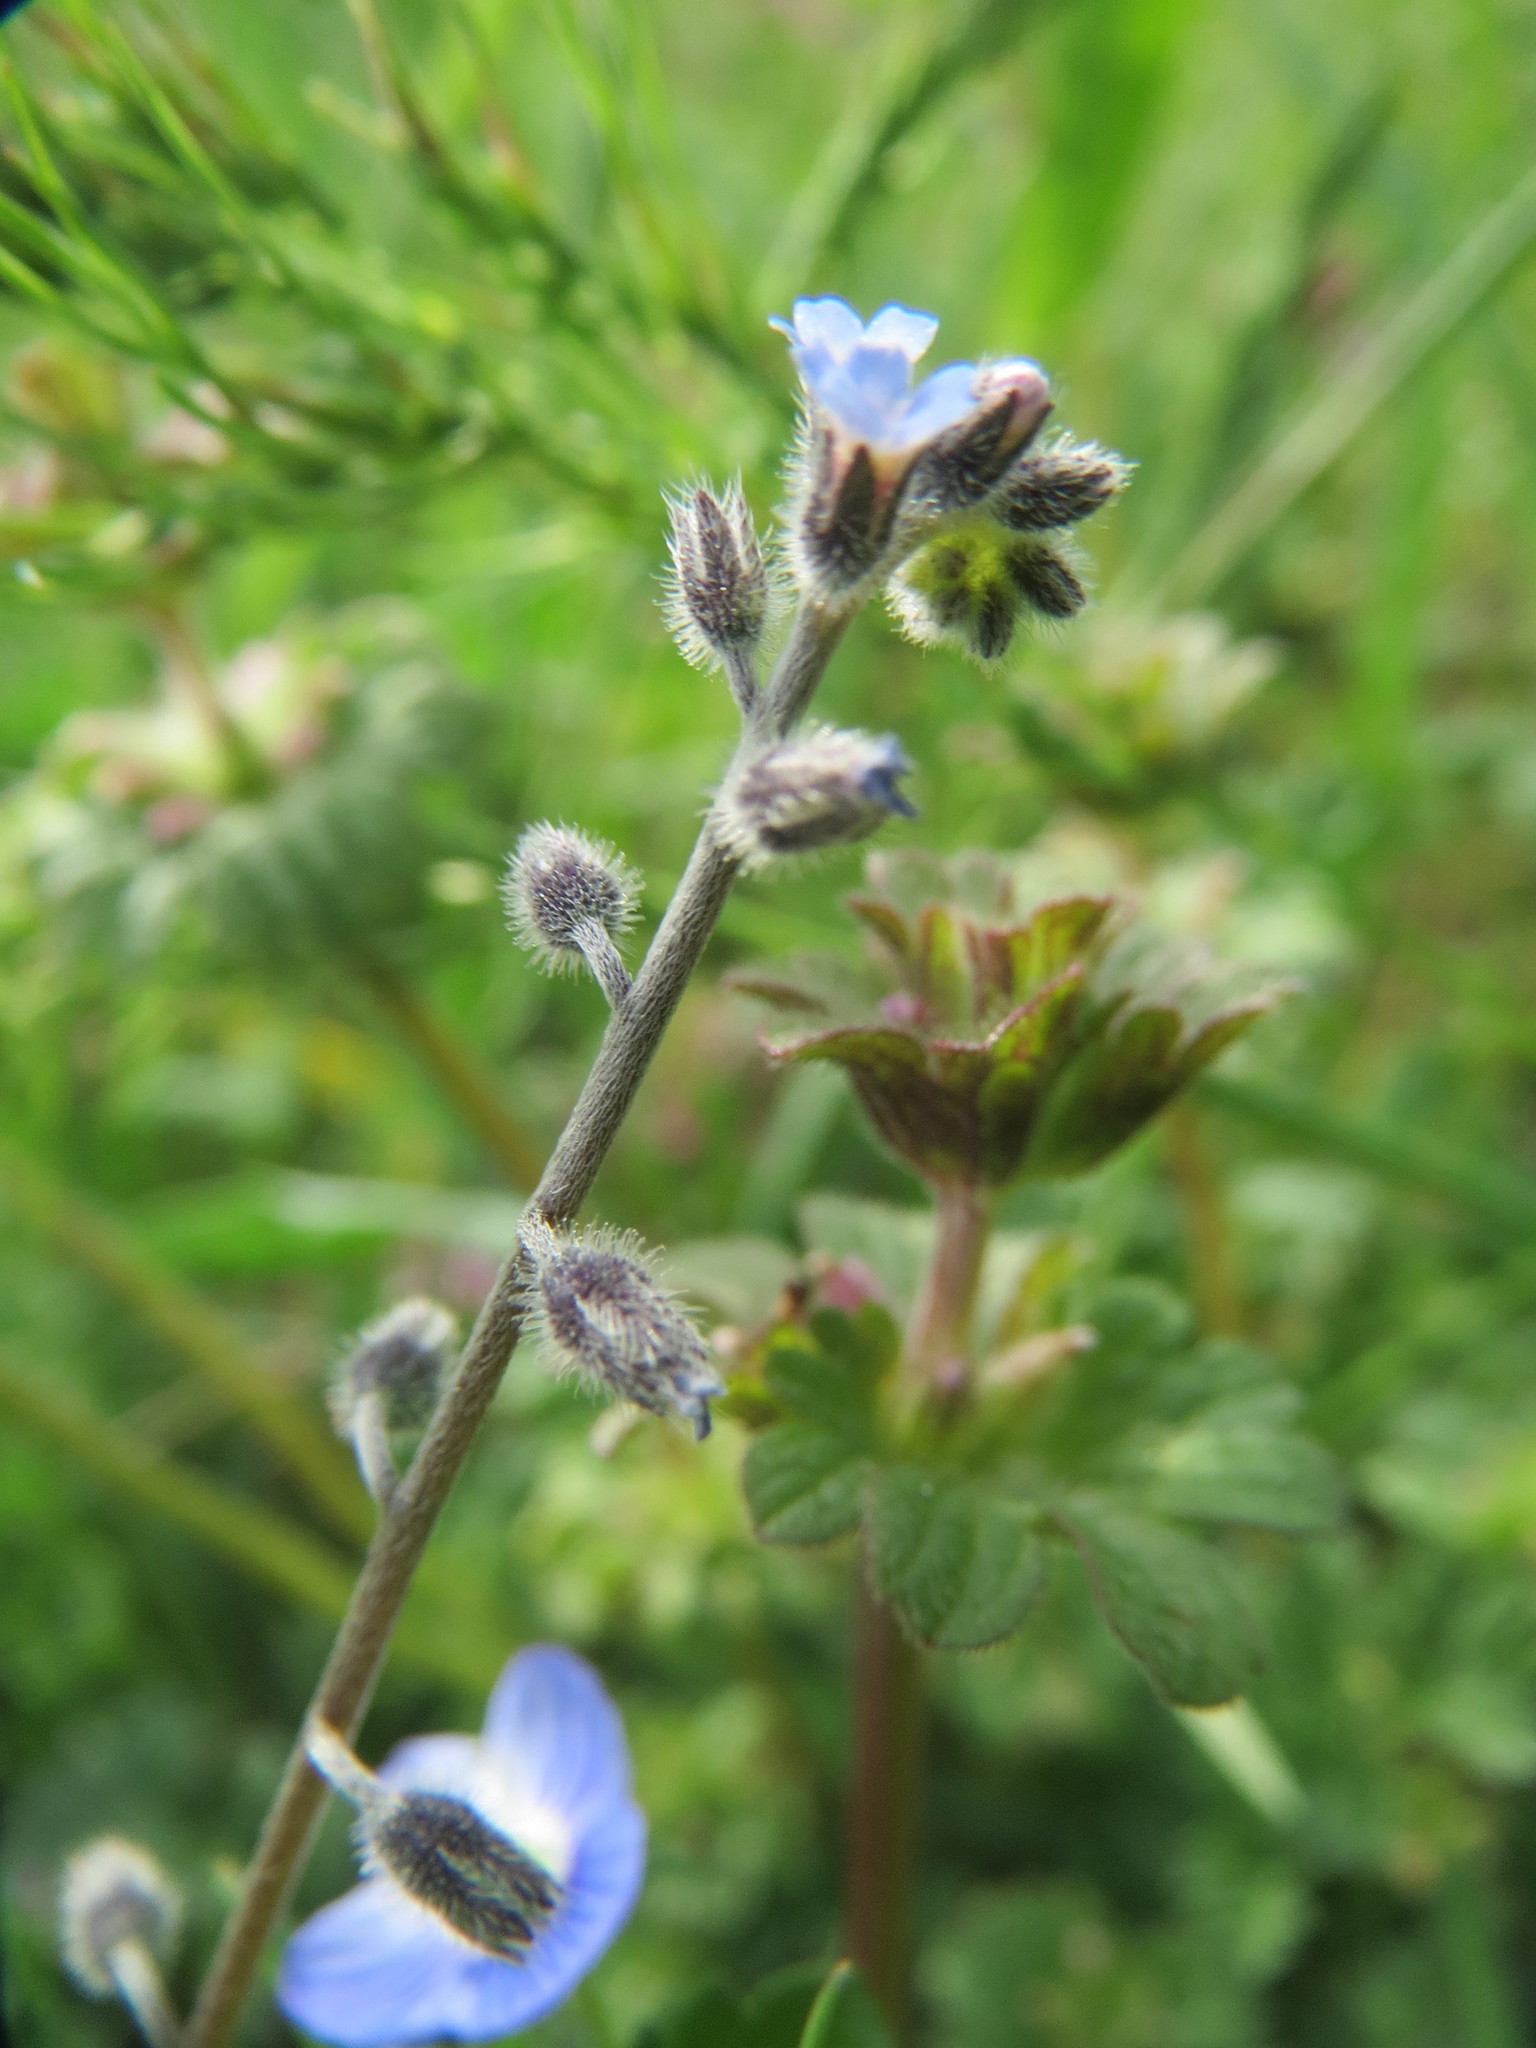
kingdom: Plantae
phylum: Tracheophyta
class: Magnoliopsida
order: Boraginales
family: Boraginaceae
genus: Myosotis
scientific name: Myosotis ramosissima
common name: Early forget-me-not
